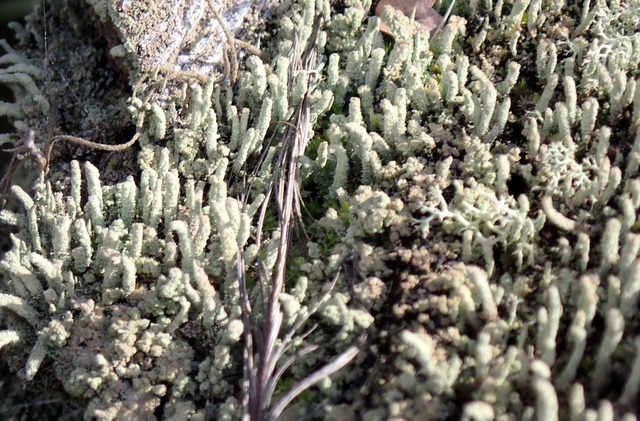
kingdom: Fungi
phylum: Ascomycota
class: Lecanoromycetes
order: Lecanorales
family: Cladoniaceae
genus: Cladonia
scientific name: Cladonia subradiata
